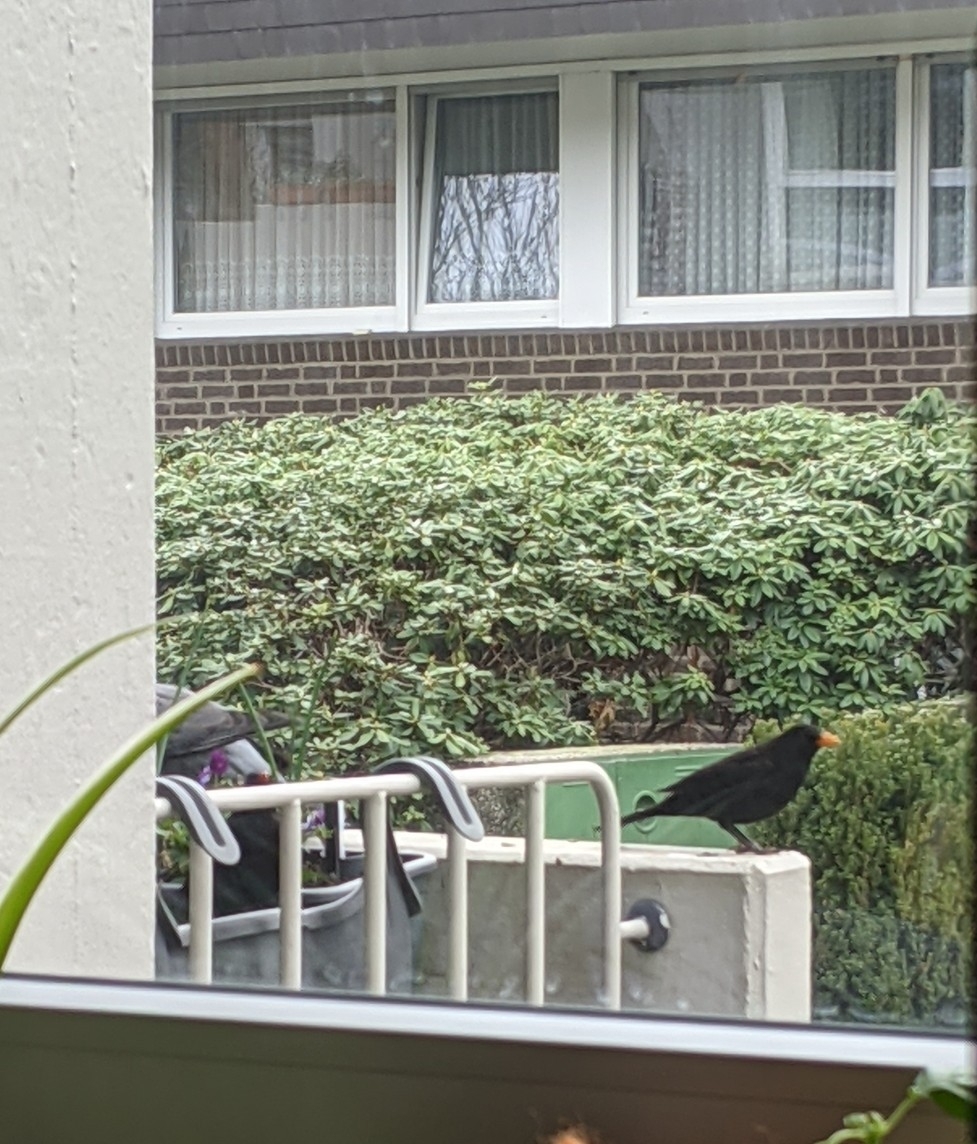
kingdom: Animalia
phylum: Chordata
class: Aves
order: Passeriformes
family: Turdidae
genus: Turdus
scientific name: Turdus merula
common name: Common blackbird
